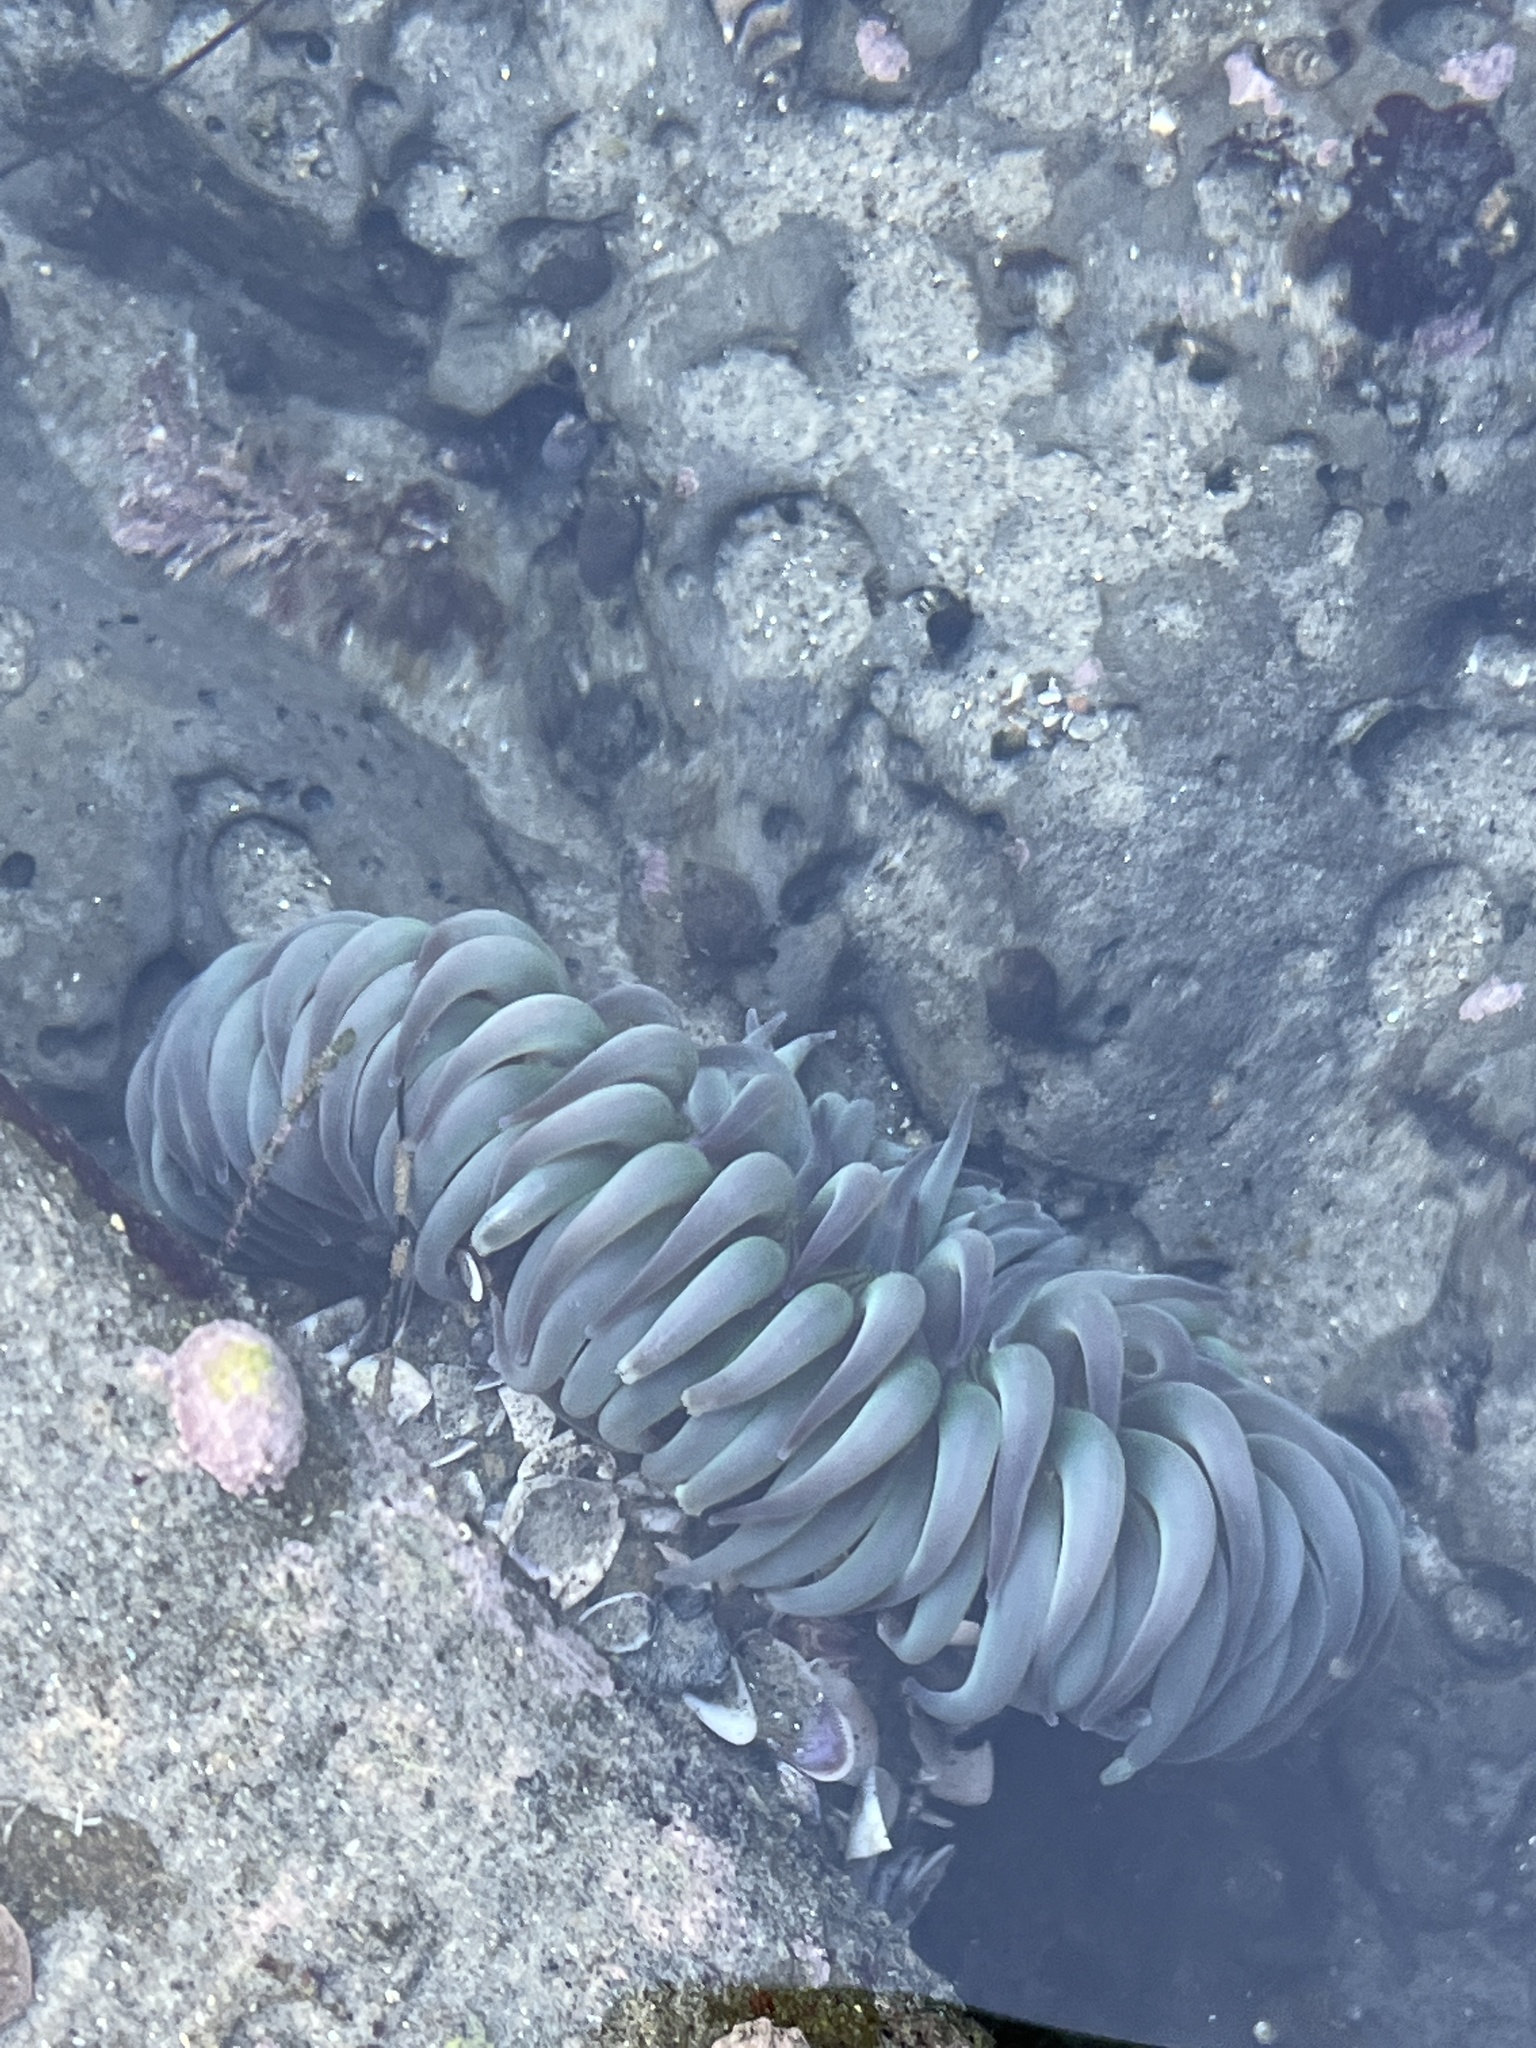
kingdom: Animalia
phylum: Cnidaria
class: Anthozoa
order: Actiniaria
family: Actiniidae
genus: Anthopleura
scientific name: Anthopleura sola
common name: Sun anemone
